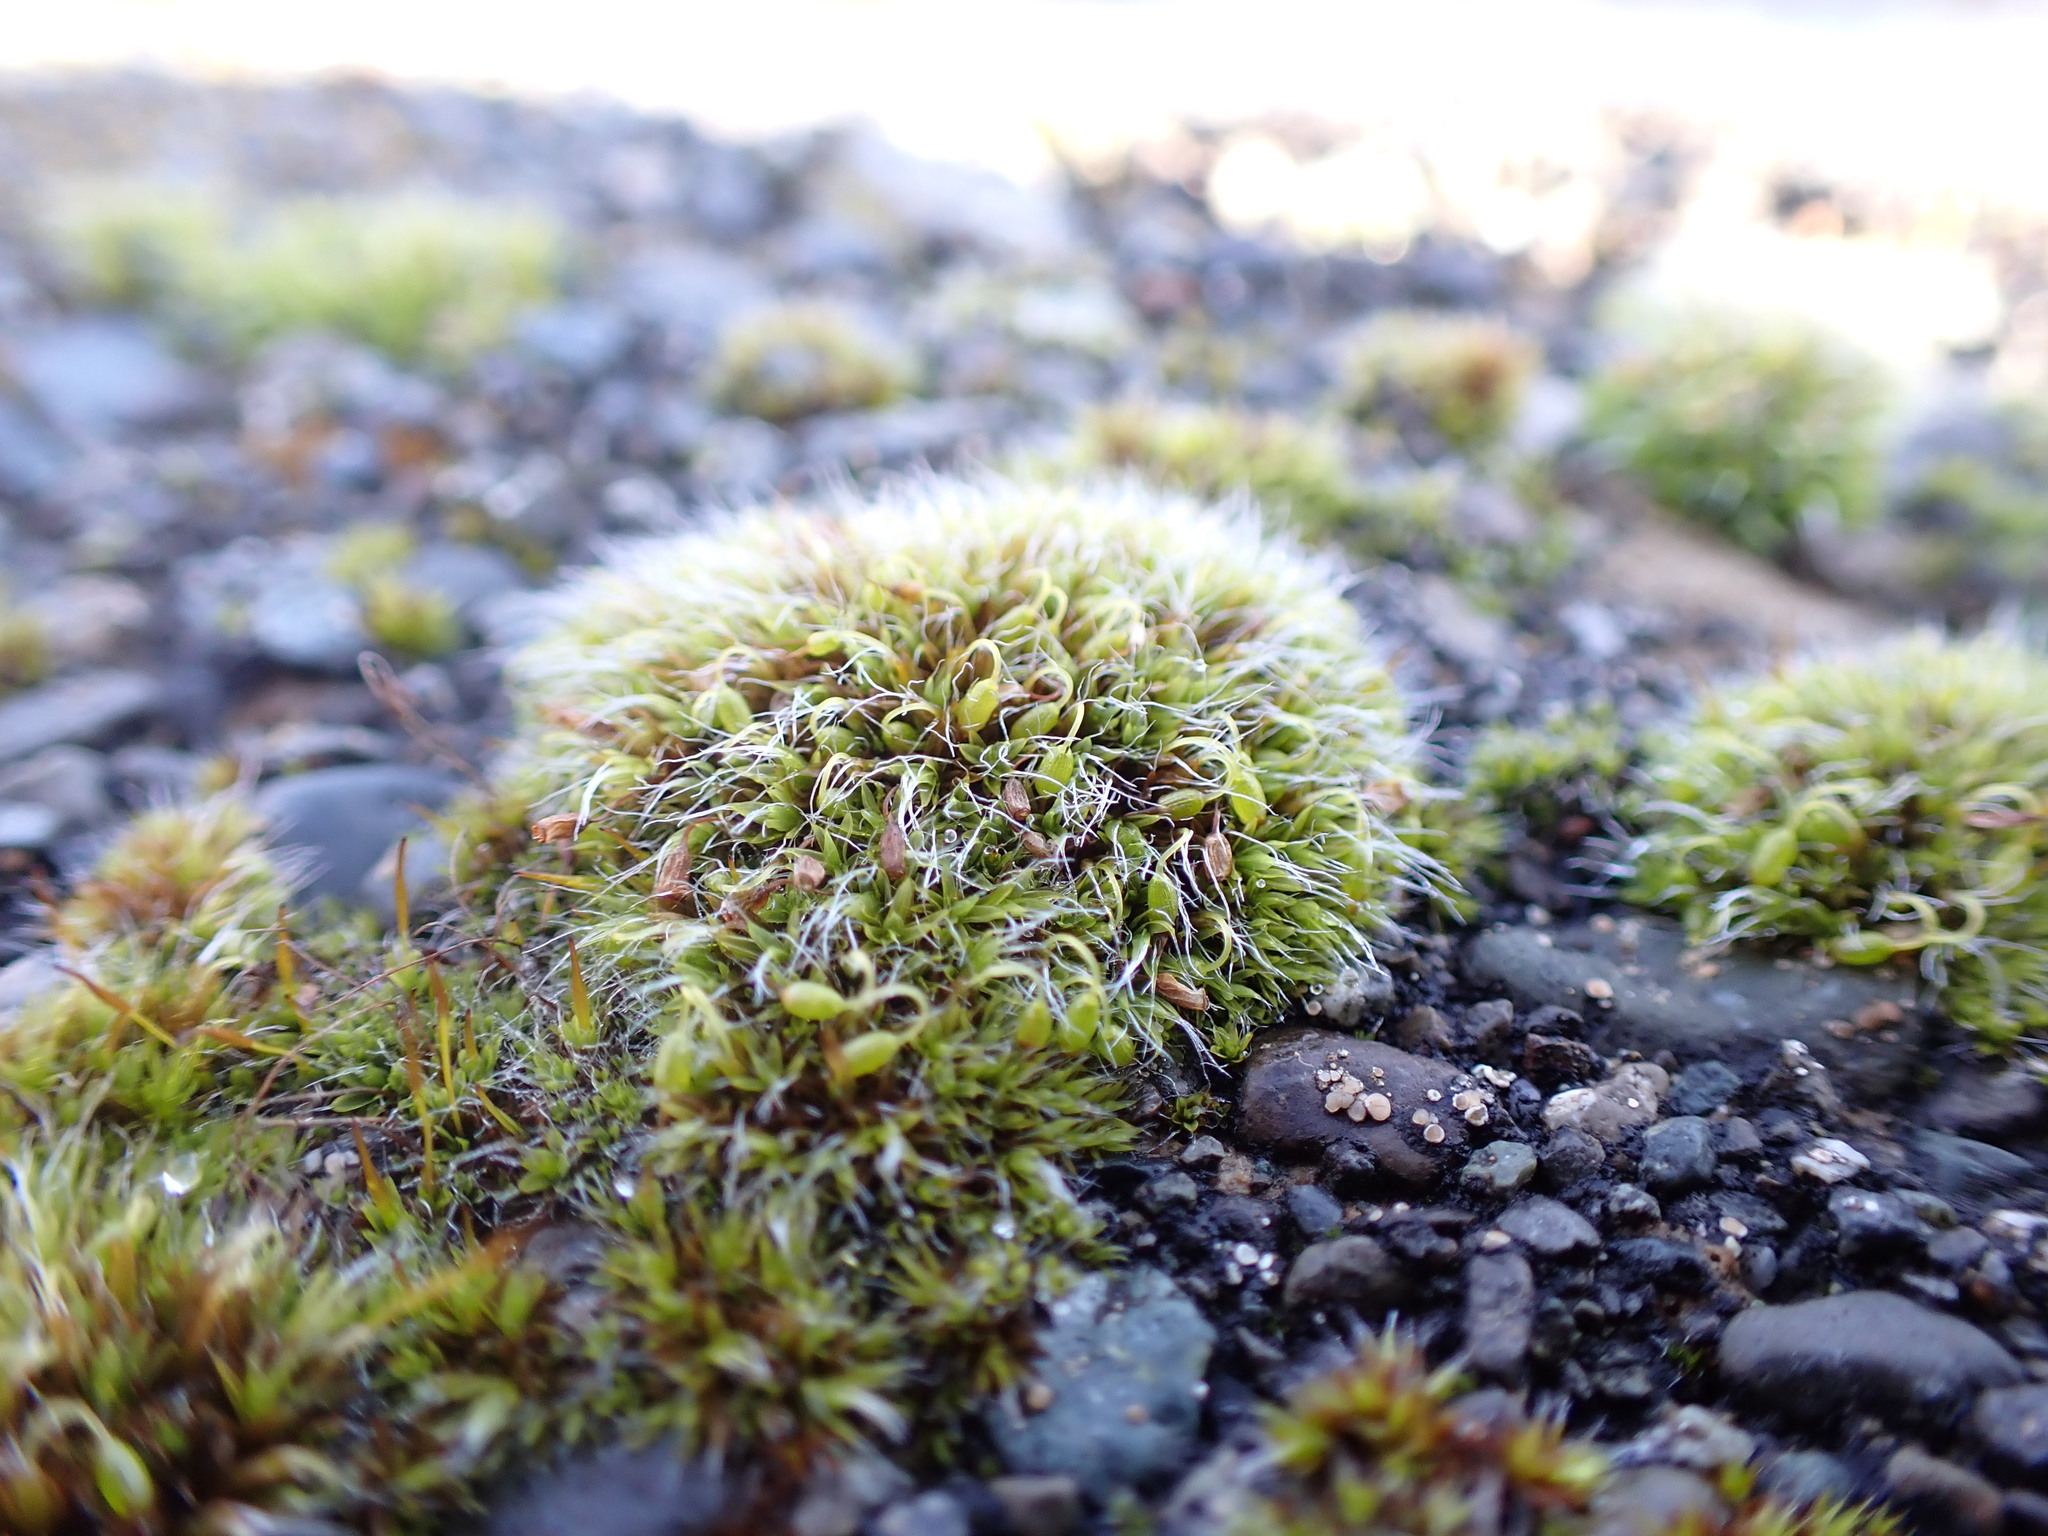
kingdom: Plantae
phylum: Bryophyta
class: Bryopsida
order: Grimmiales
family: Grimmiaceae
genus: Grimmia
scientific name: Grimmia pulvinata
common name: Grey-cushioned grimmia
